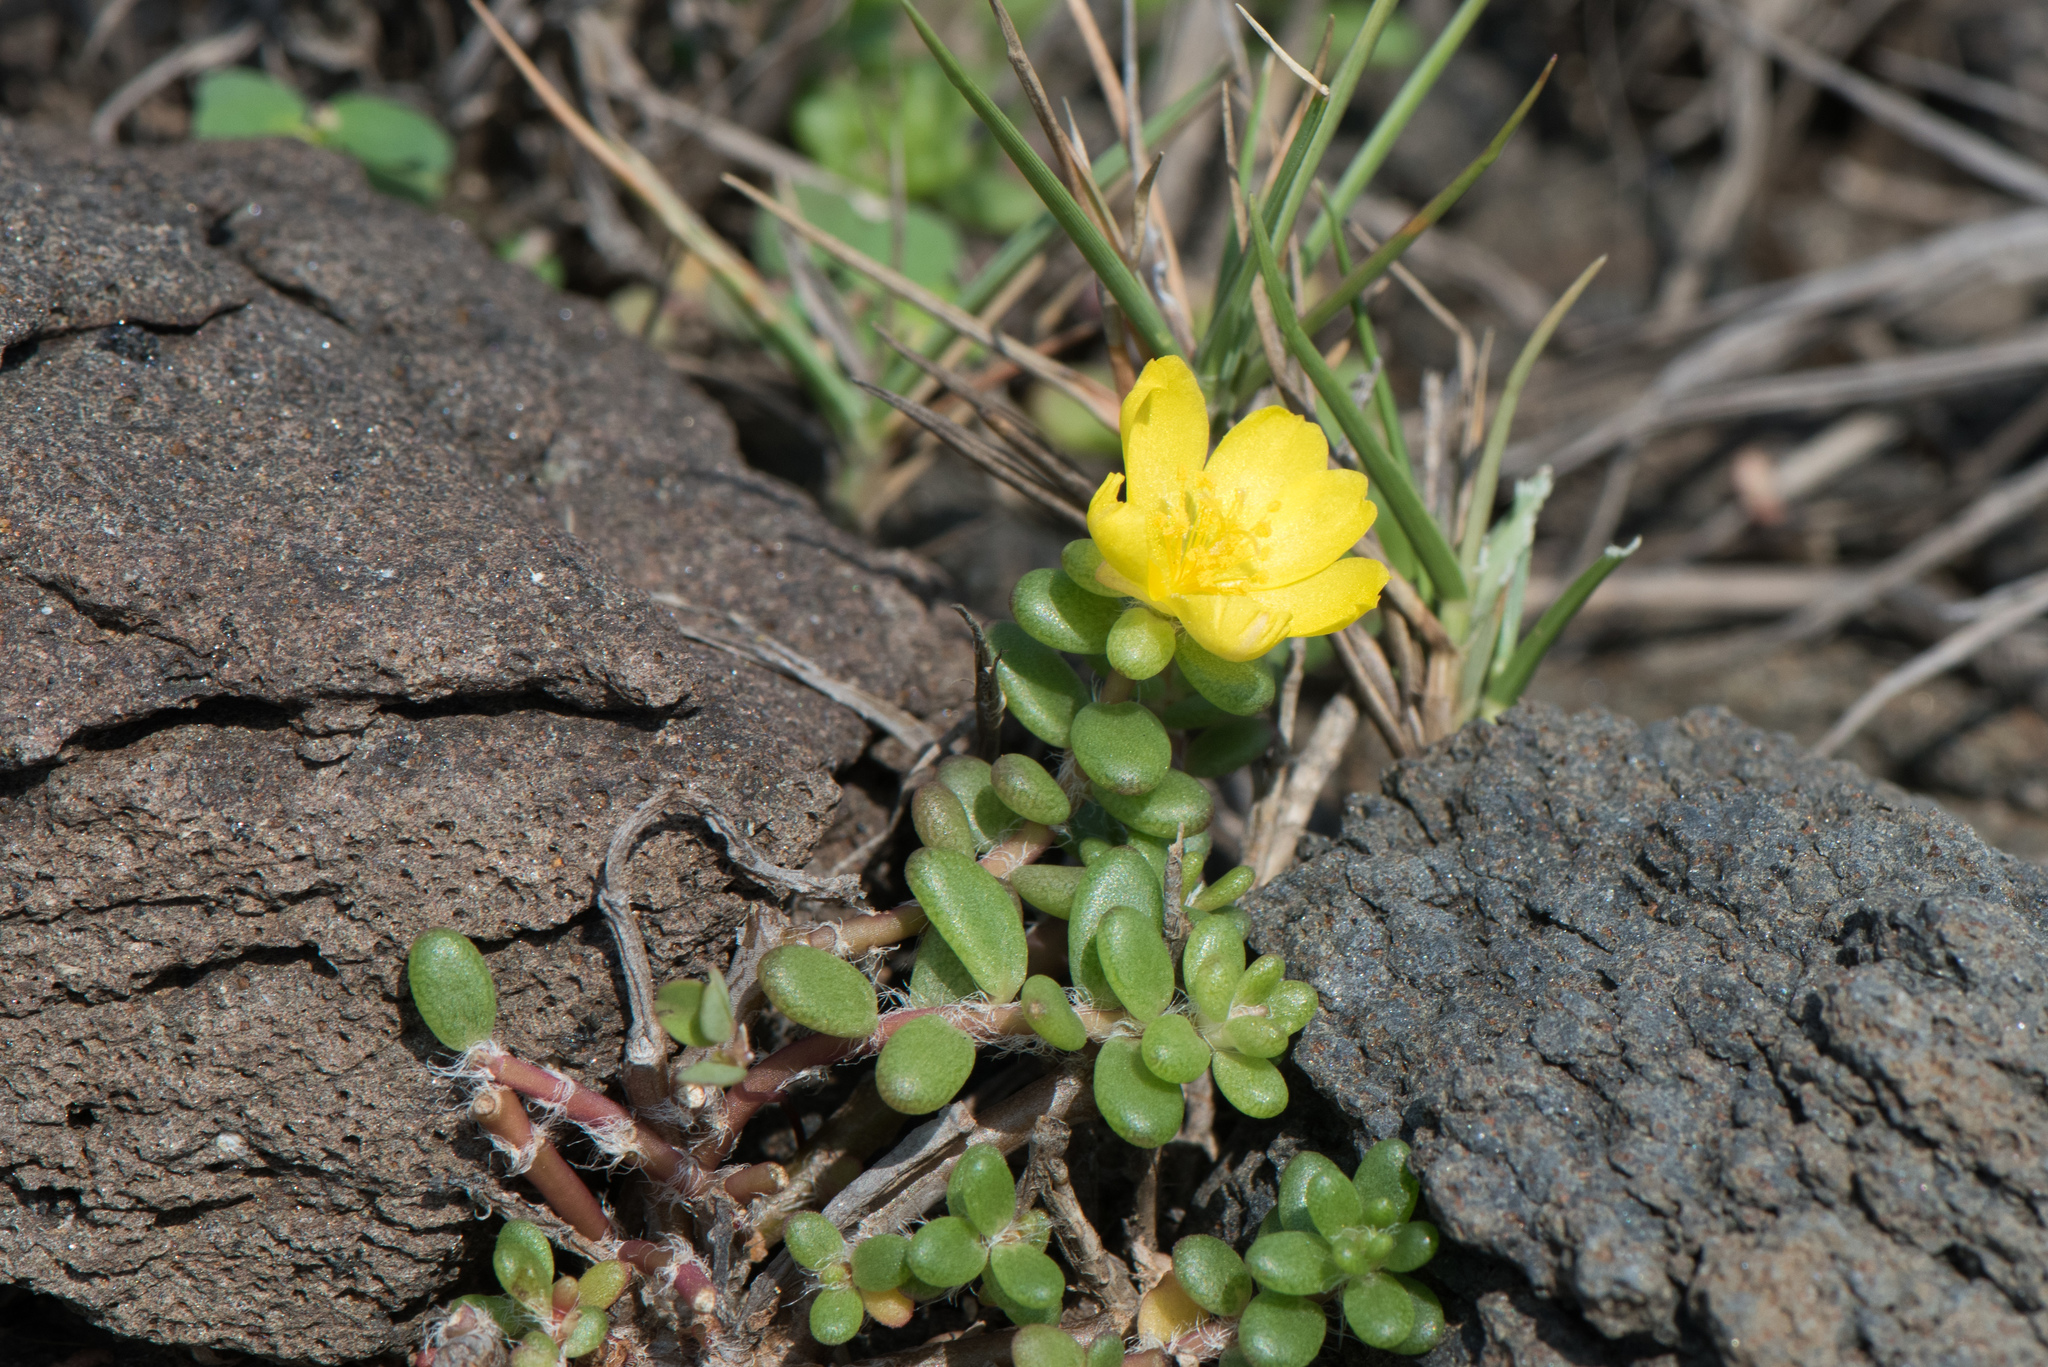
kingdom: Plantae
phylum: Tracheophyta
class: Magnoliopsida
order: Caryophyllales
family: Portulacaceae
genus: Portulaca
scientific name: Portulaca psammotropha
